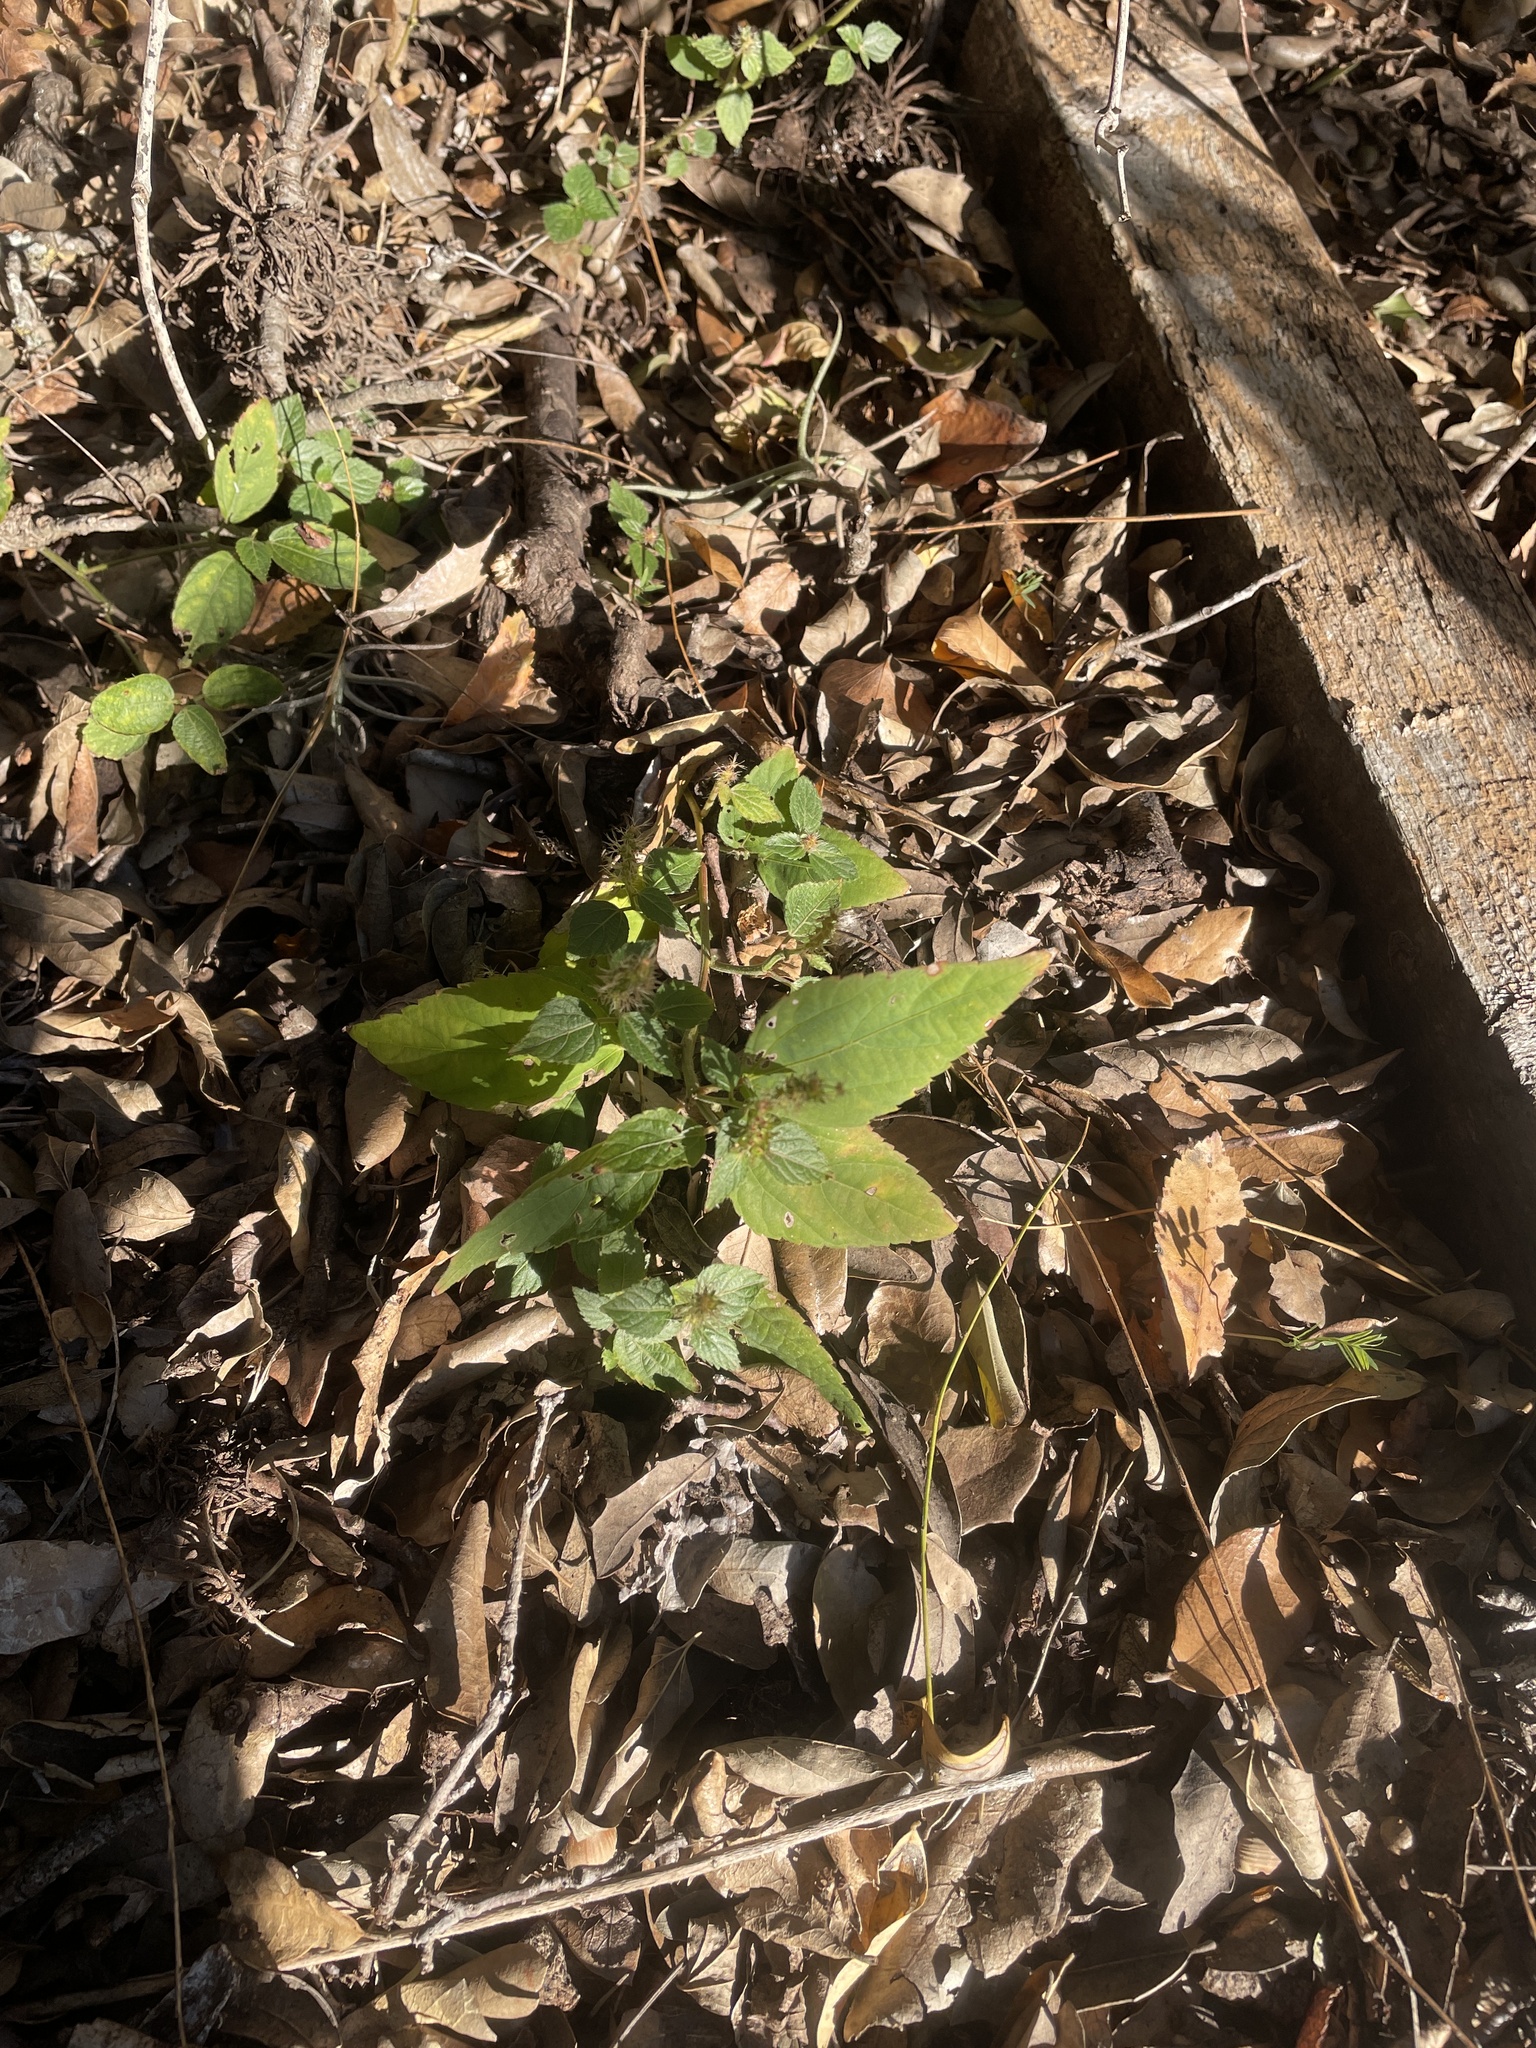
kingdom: Plantae
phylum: Tracheophyta
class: Magnoliopsida
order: Malpighiales
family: Euphorbiaceae
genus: Acalypha
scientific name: Acalypha phleoides
